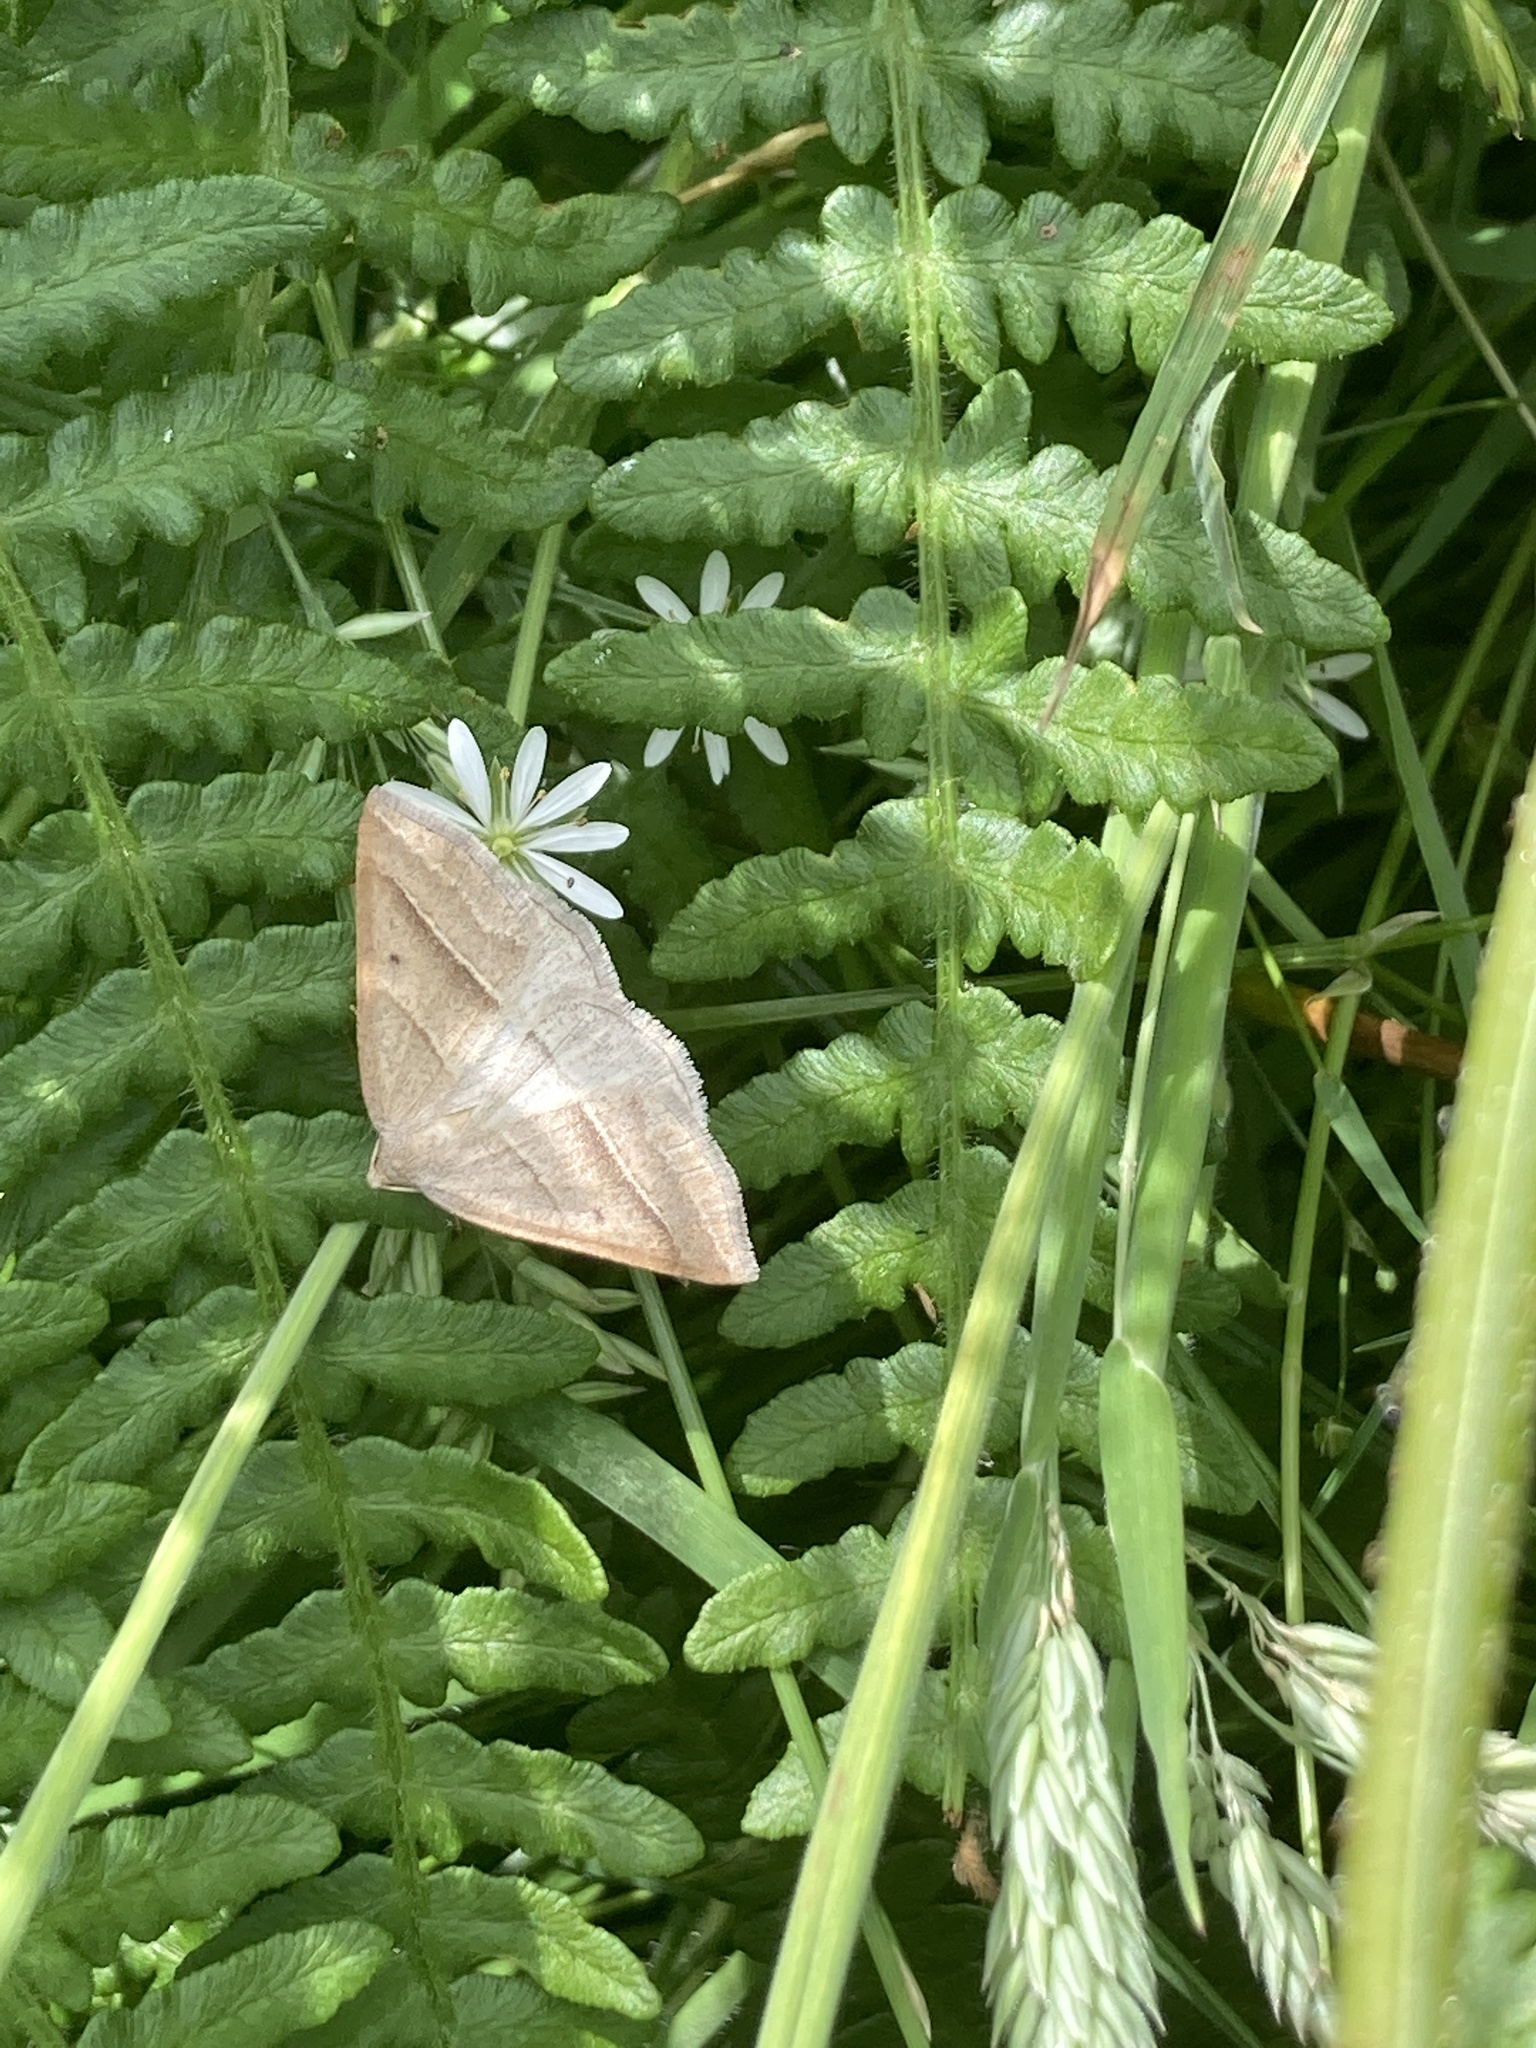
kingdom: Animalia
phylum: Arthropoda
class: Insecta
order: Lepidoptera
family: Pterophoridae
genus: Pterophorus
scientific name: Pterophorus Petrophora chlorosata
